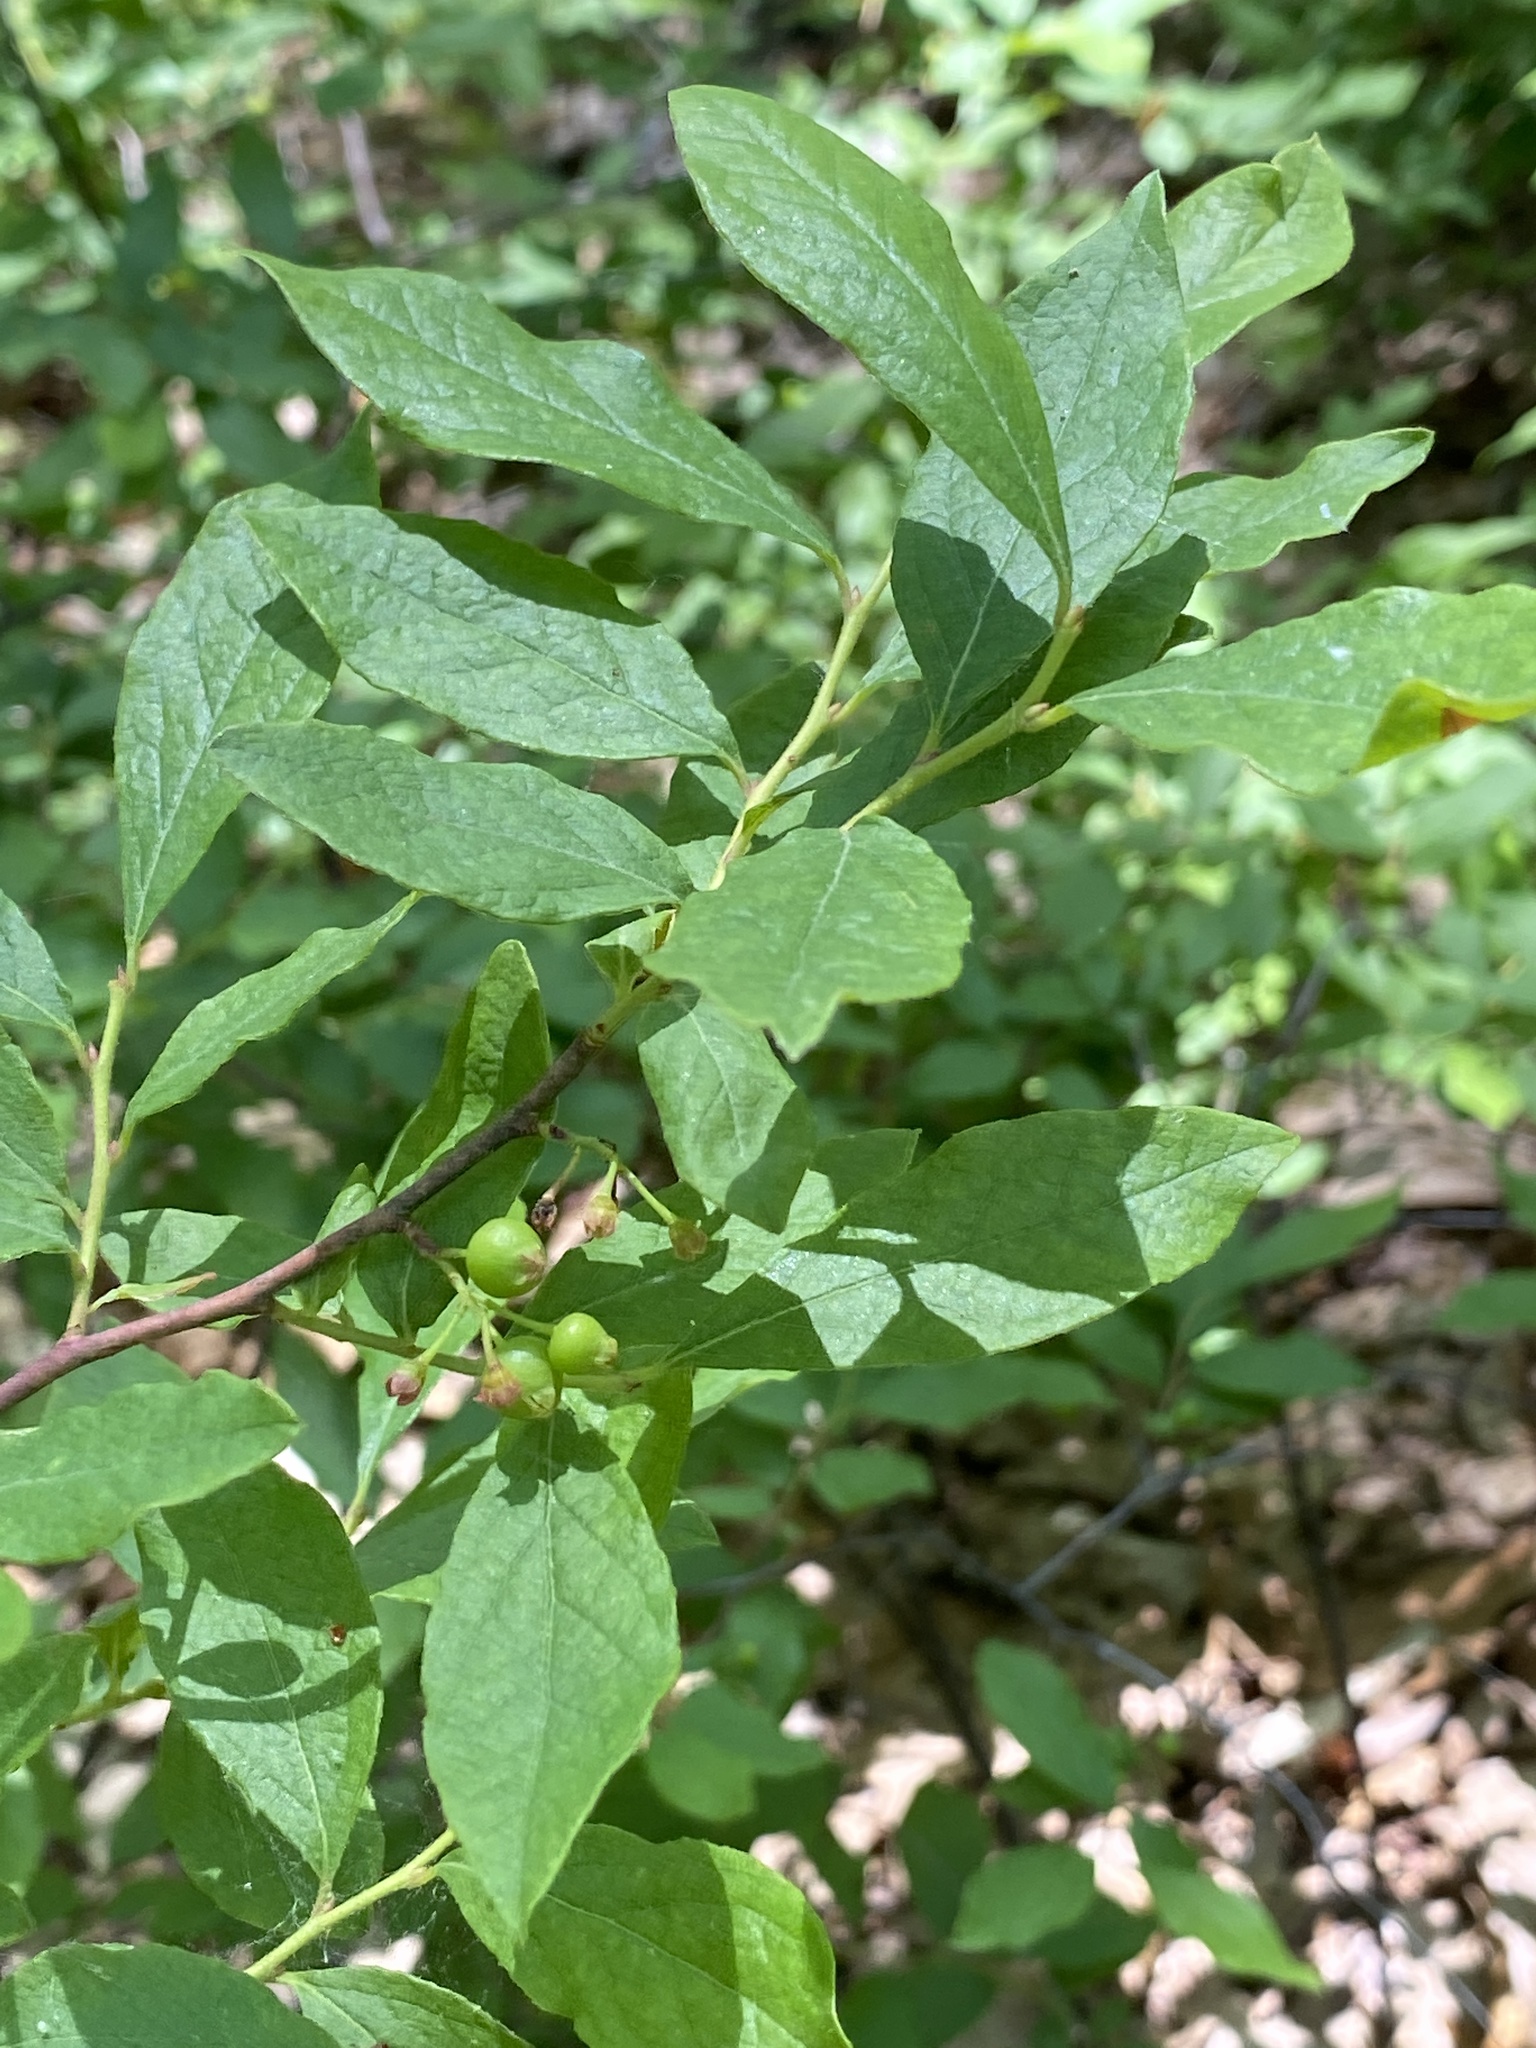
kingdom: Plantae
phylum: Tracheophyta
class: Magnoliopsida
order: Ericales
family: Ericaceae
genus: Gaylussacia
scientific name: Gaylussacia baccata
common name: Black huckleberry
